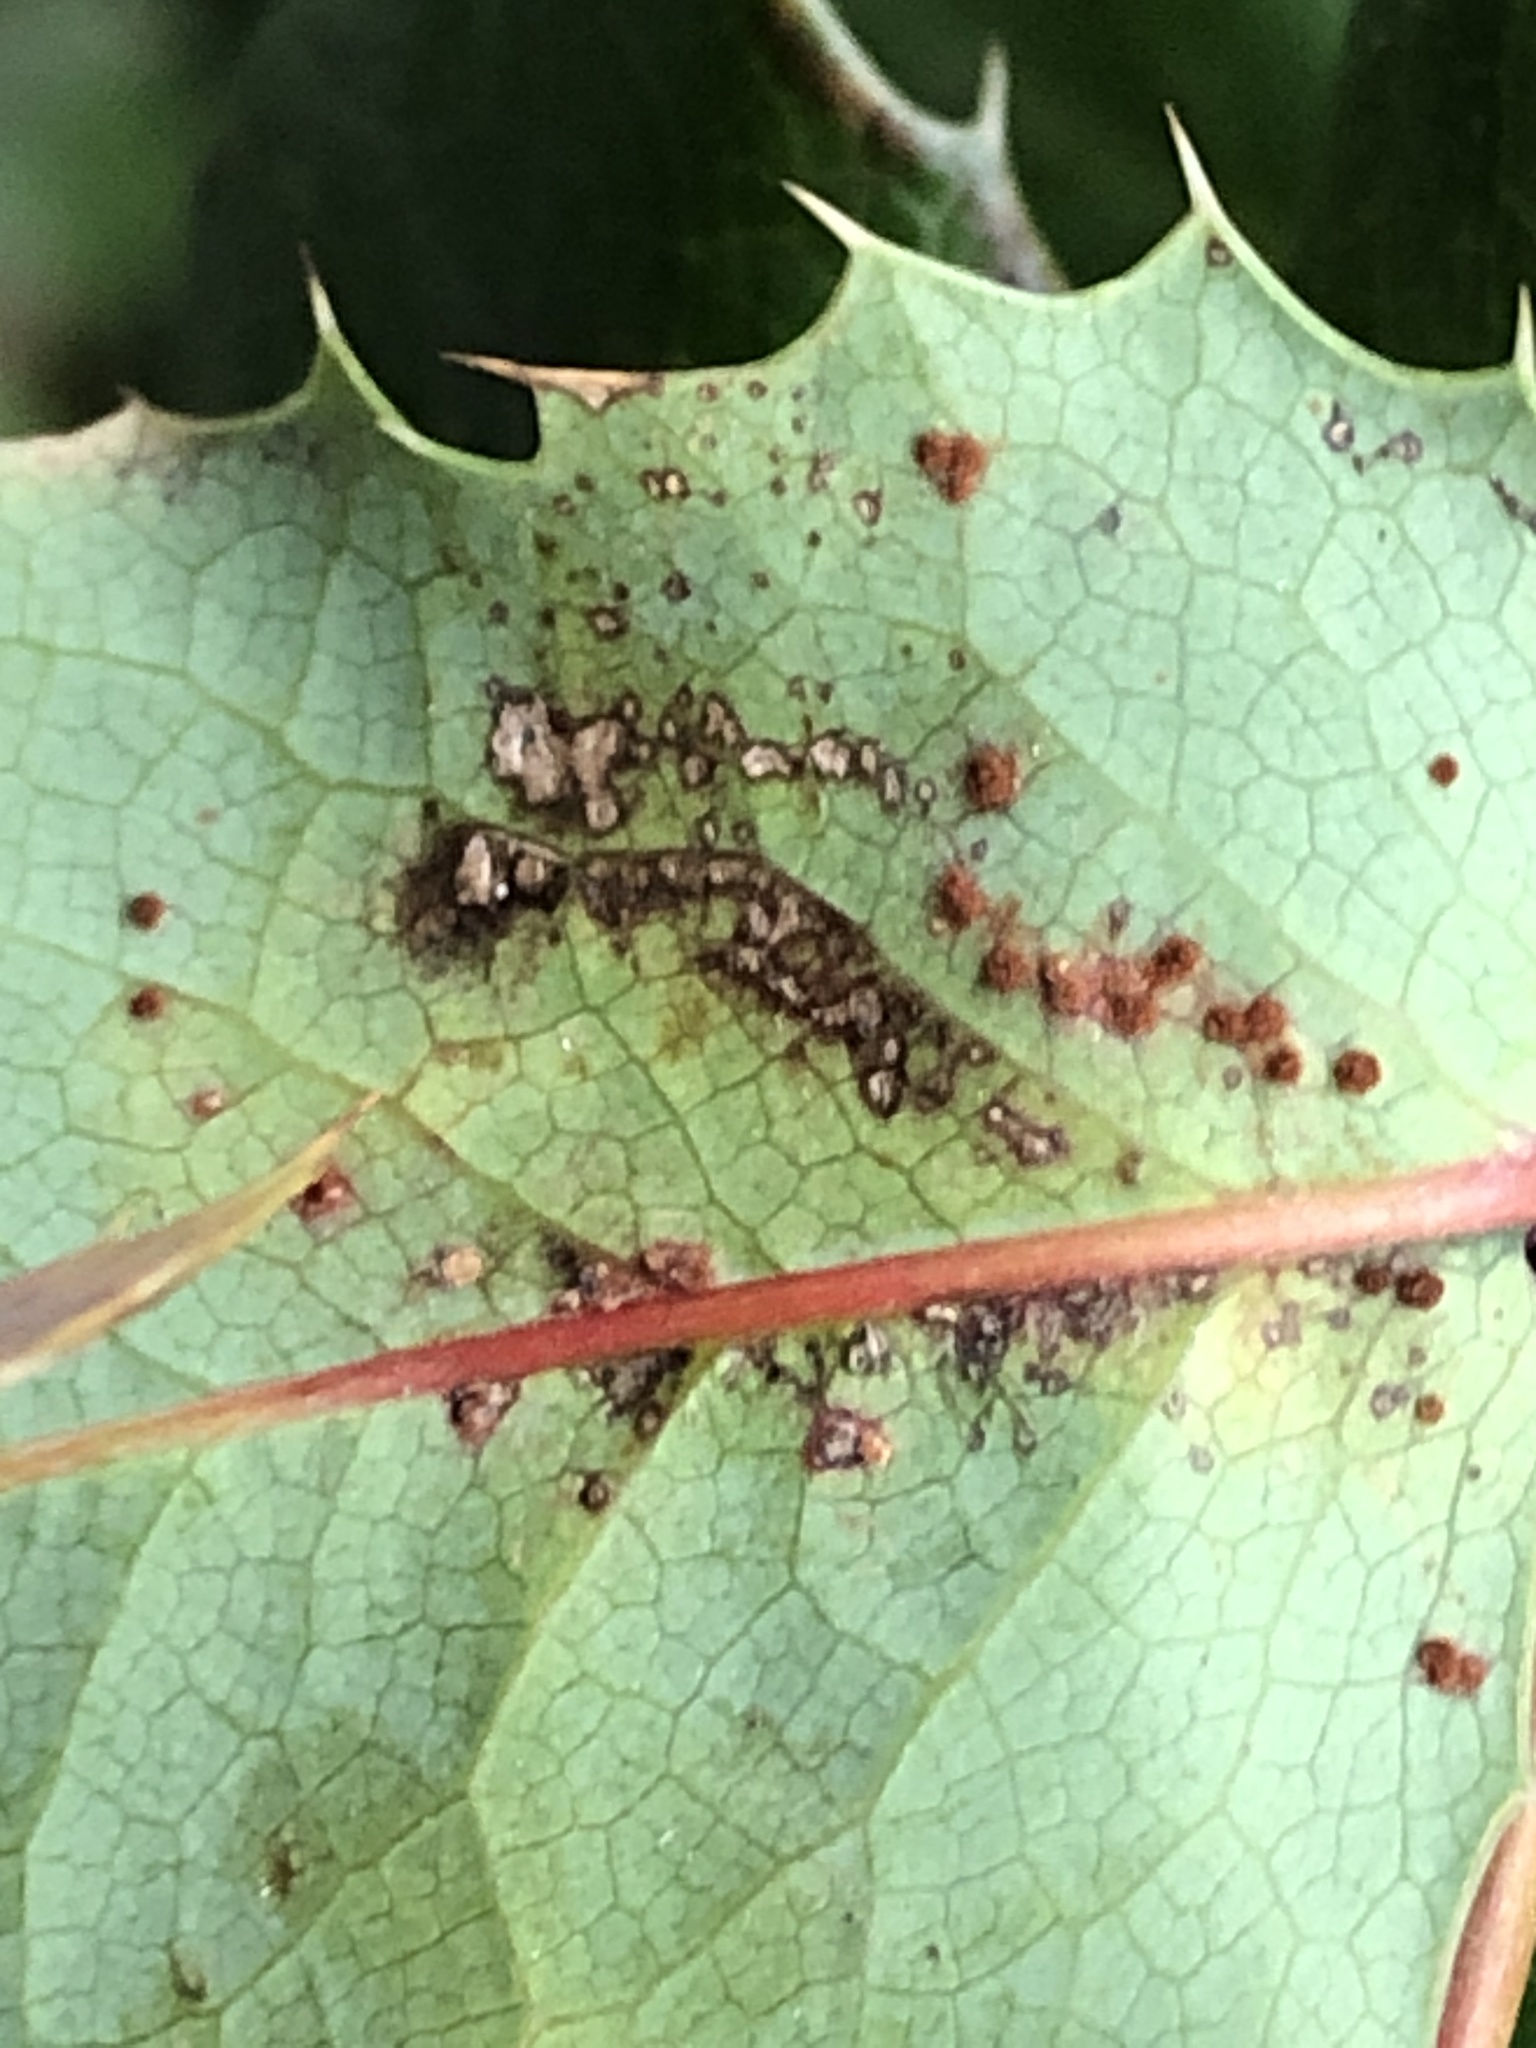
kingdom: Fungi
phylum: Basidiomycota
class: Pucciniomycetes
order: Pucciniales
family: Pucciniaceae
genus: Cumminsiella
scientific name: Cumminsiella mirabilissima
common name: Mahonia rust
